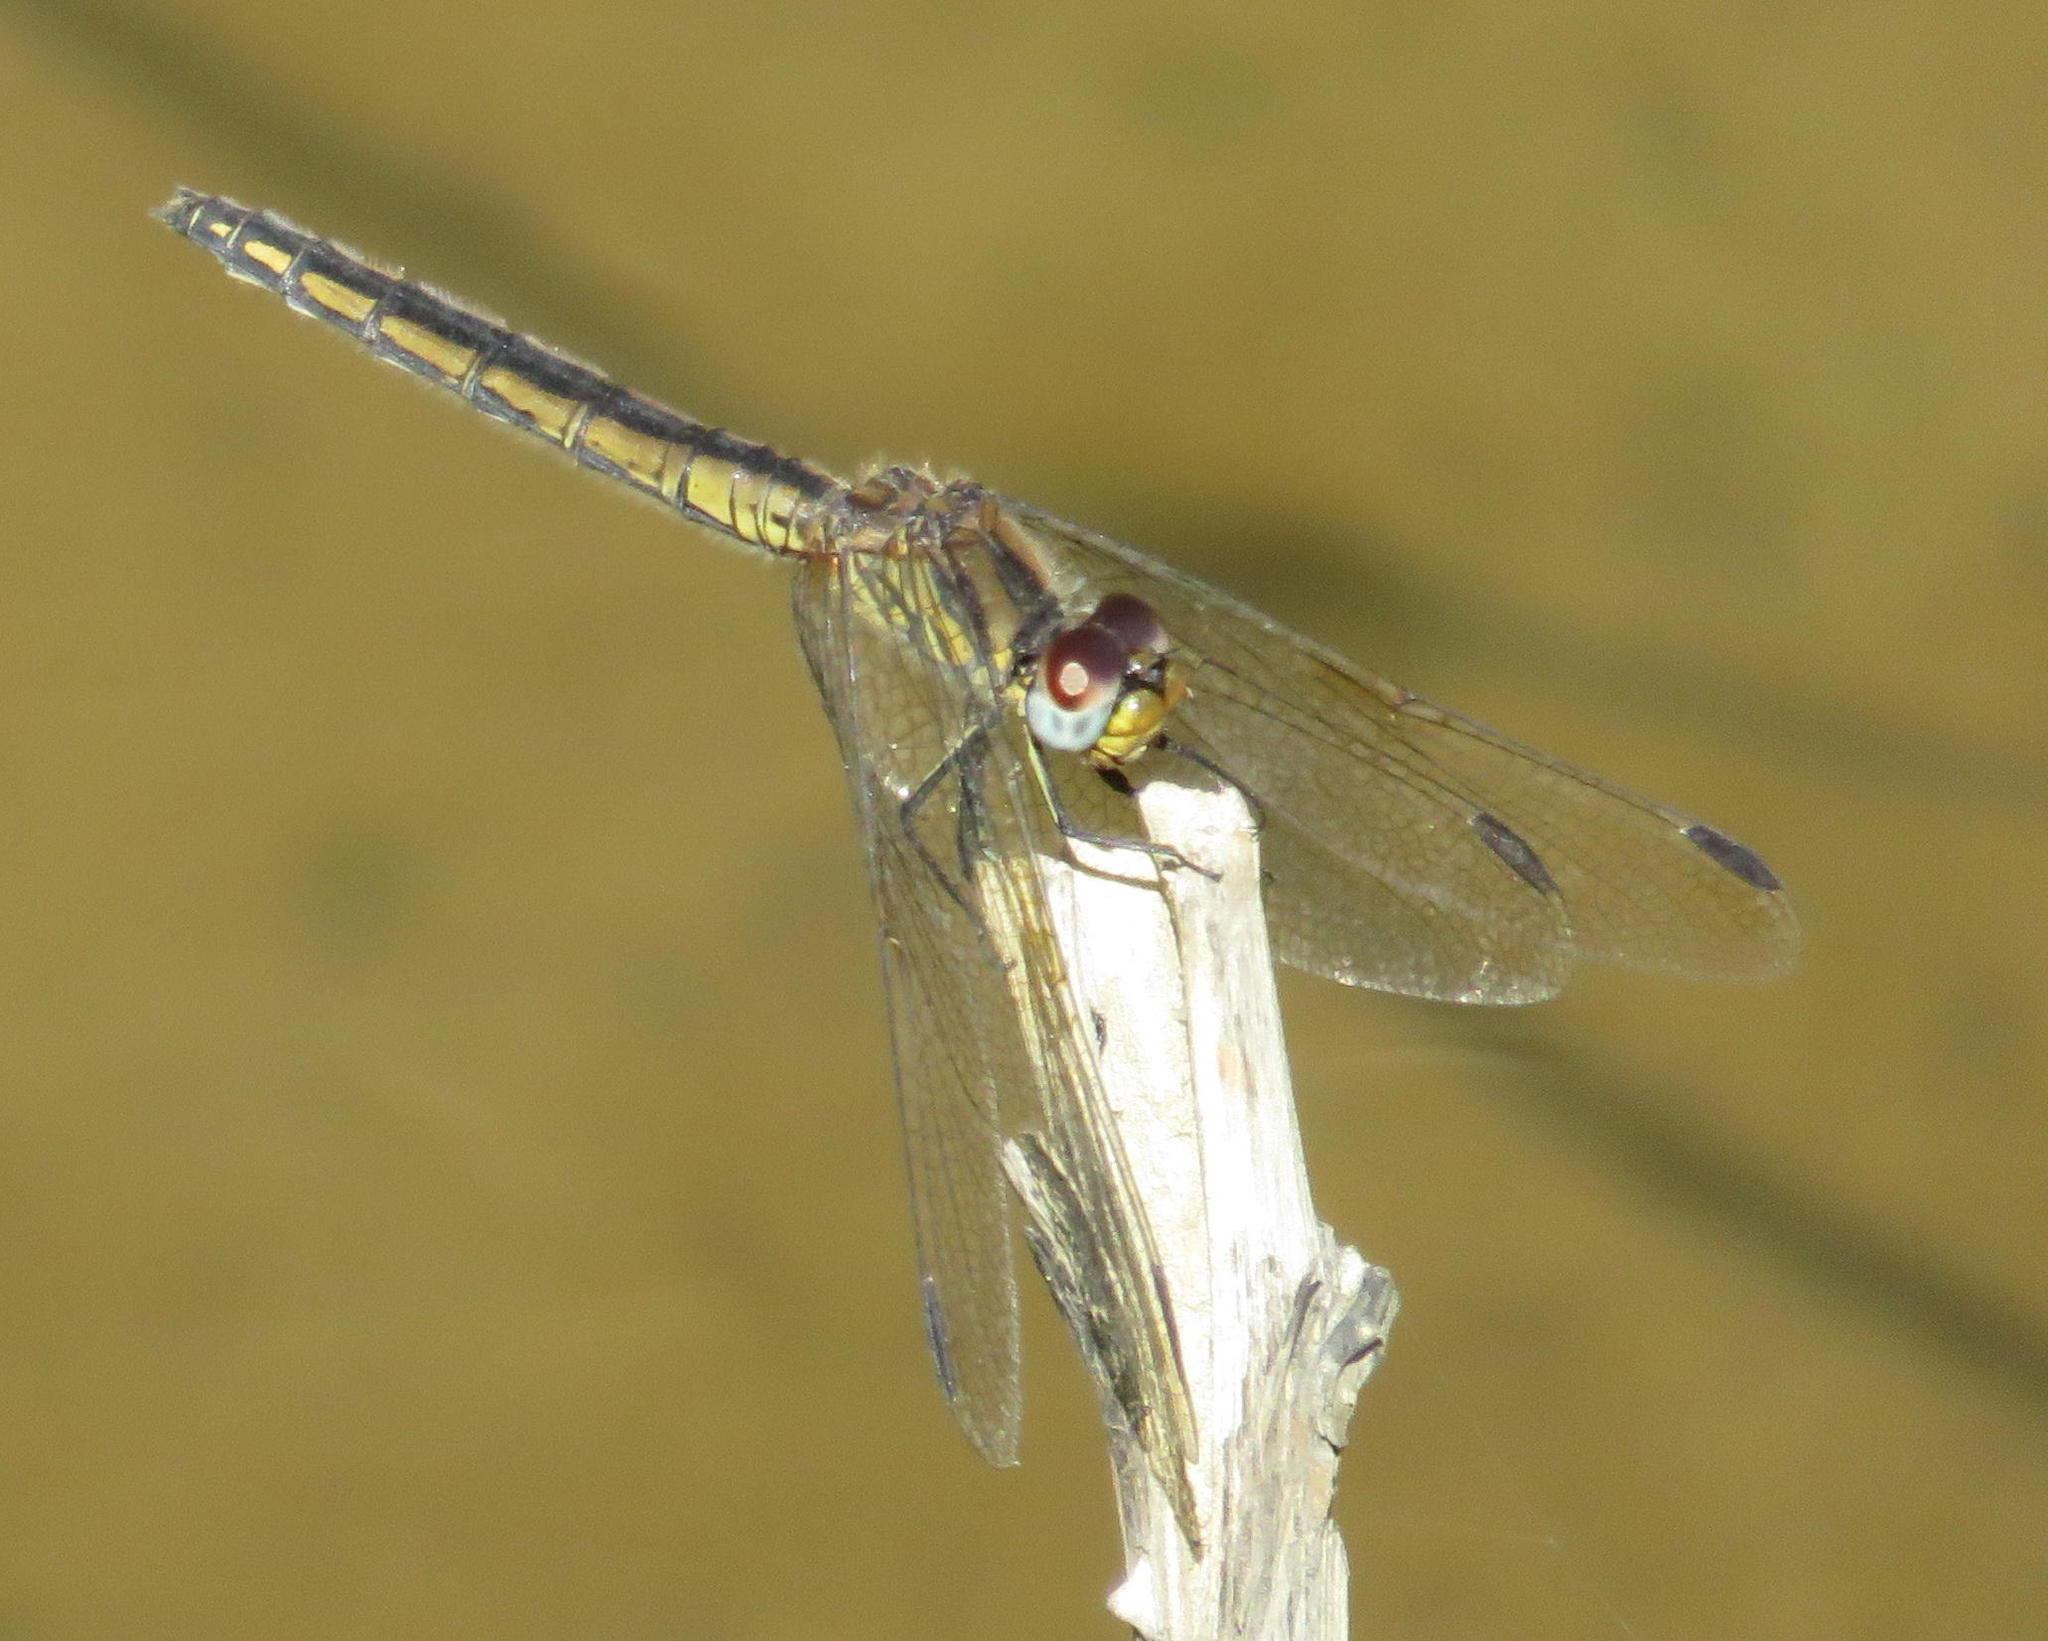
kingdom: Animalia
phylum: Arthropoda
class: Insecta
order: Odonata
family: Libellulidae
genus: Trithemis
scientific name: Trithemis dorsalis
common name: Highland dropwing
